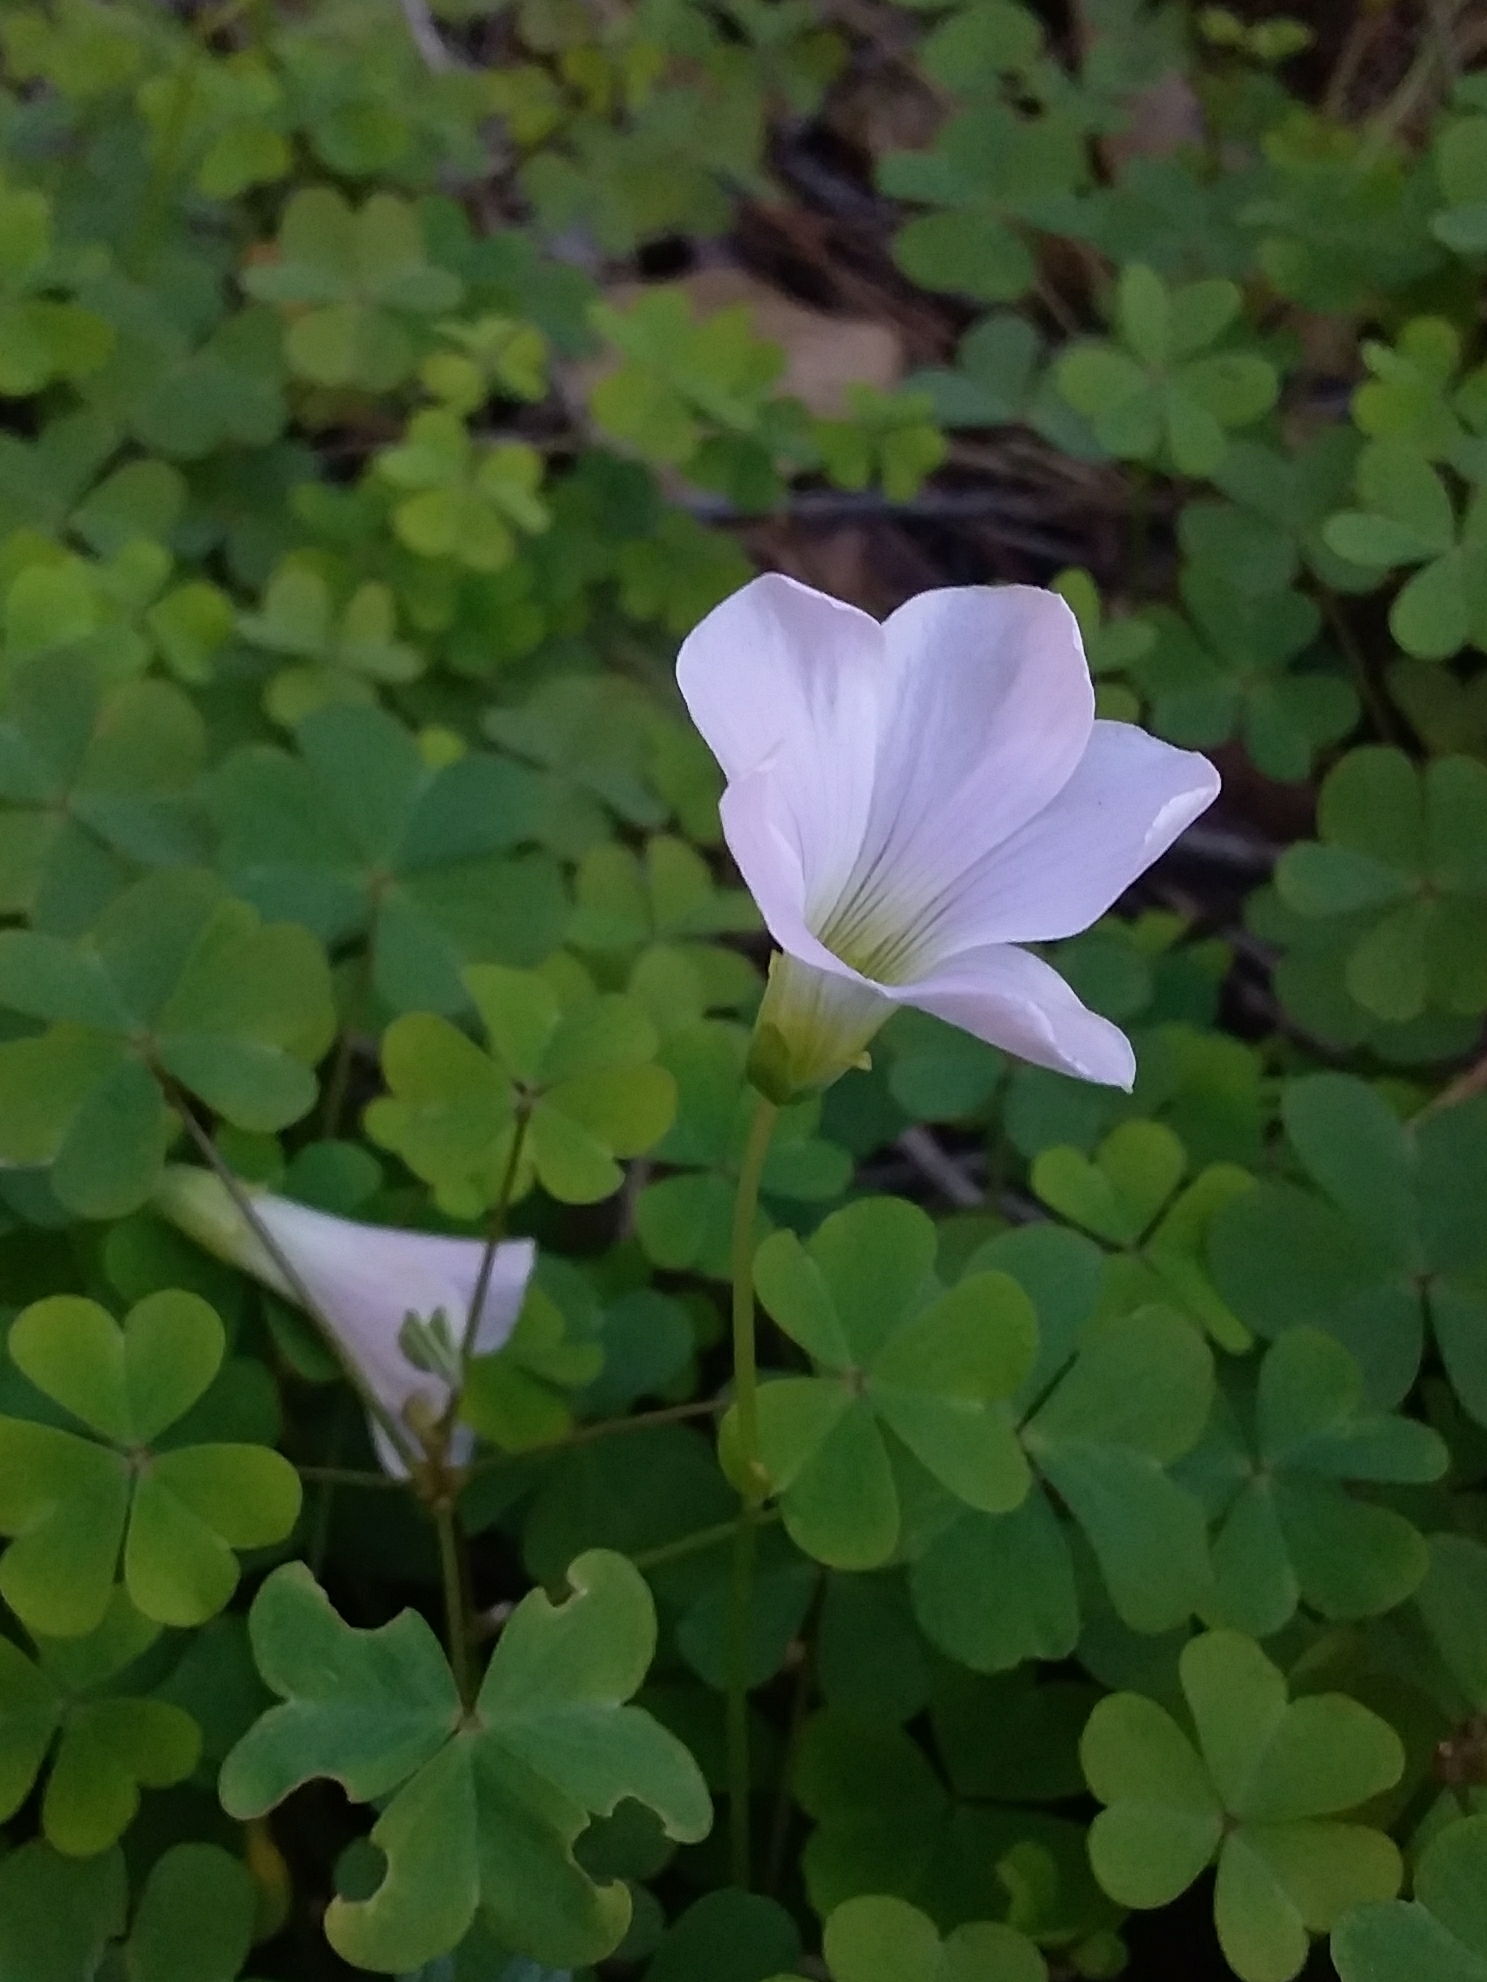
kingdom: Plantae
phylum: Tracheophyta
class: Magnoliopsida
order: Oxalidales
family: Oxalidaceae
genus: Oxalis
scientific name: Oxalis incarnata
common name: Pale pink-sorrel
